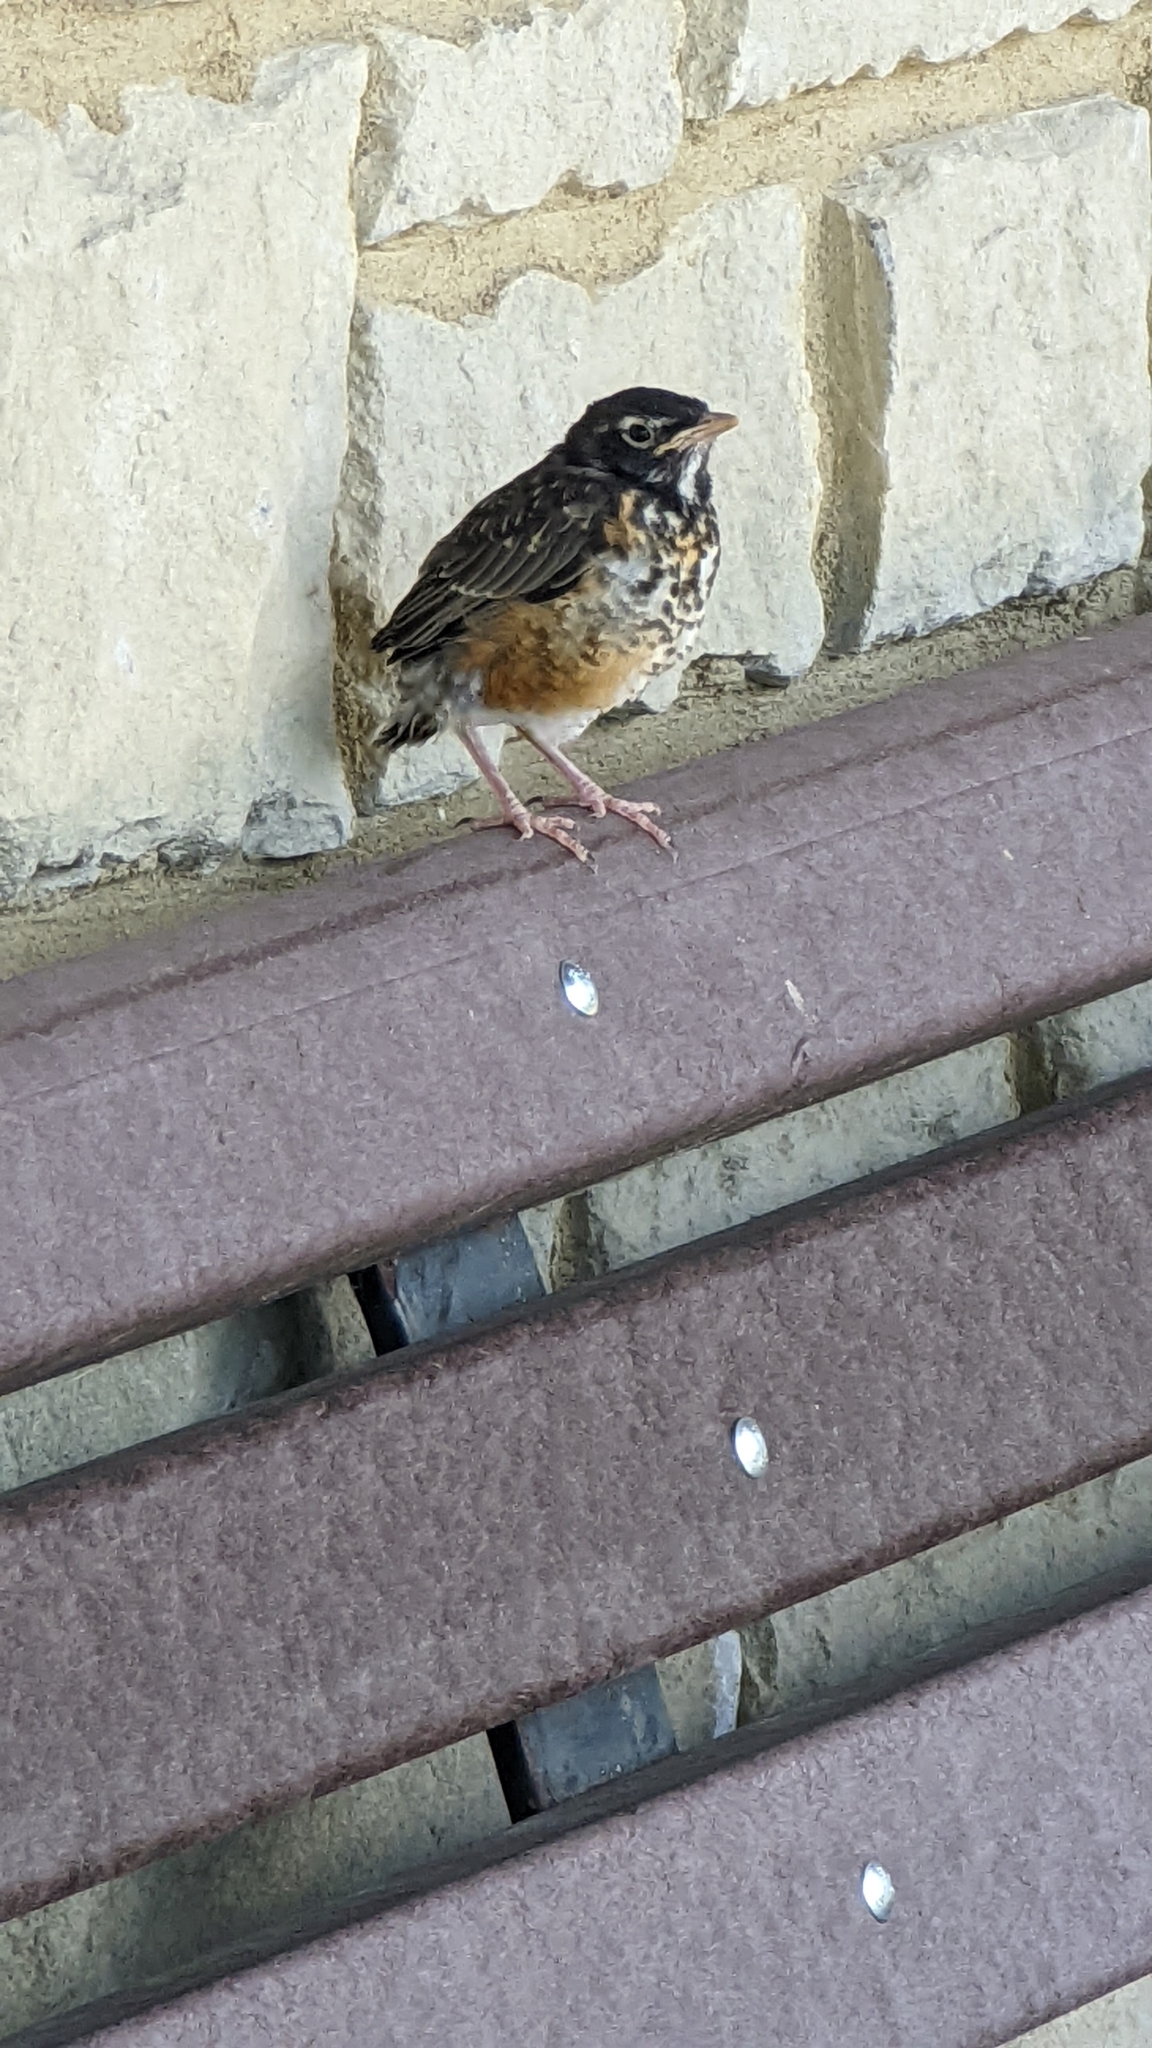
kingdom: Animalia
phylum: Chordata
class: Aves
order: Passeriformes
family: Turdidae
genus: Turdus
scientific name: Turdus migratorius
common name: American robin
